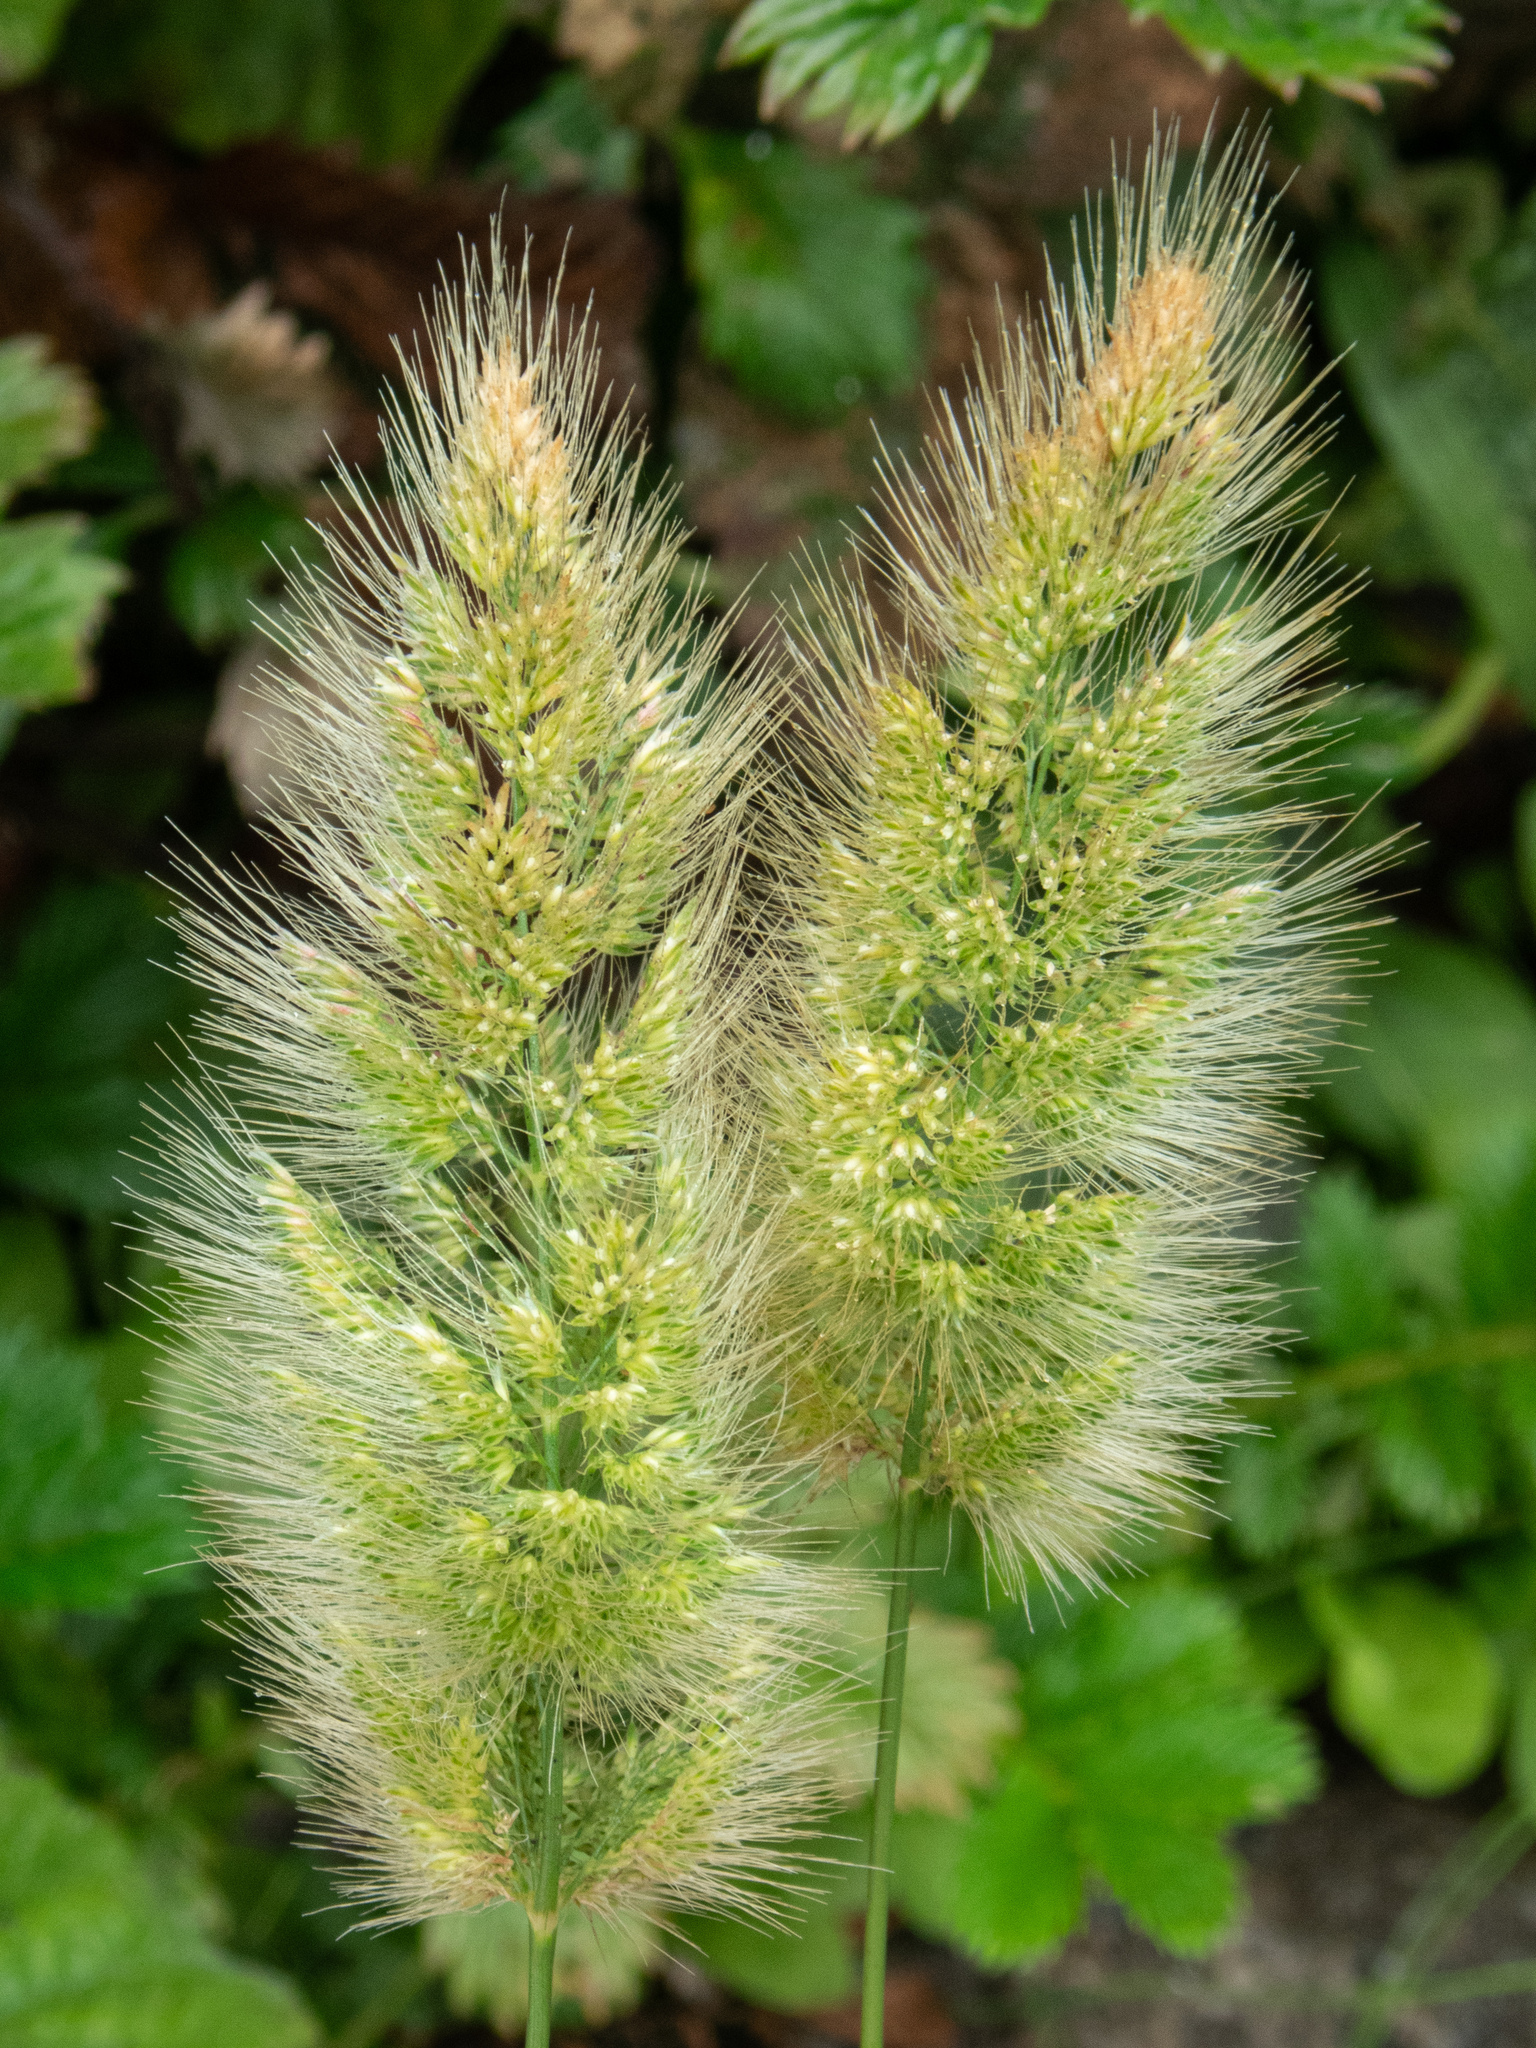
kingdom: Plantae
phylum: Tracheophyta
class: Liliopsida
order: Poales
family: Poaceae
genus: Polypogon
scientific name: Polypogon monspeliensis
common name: Annual rabbitsfoot grass
